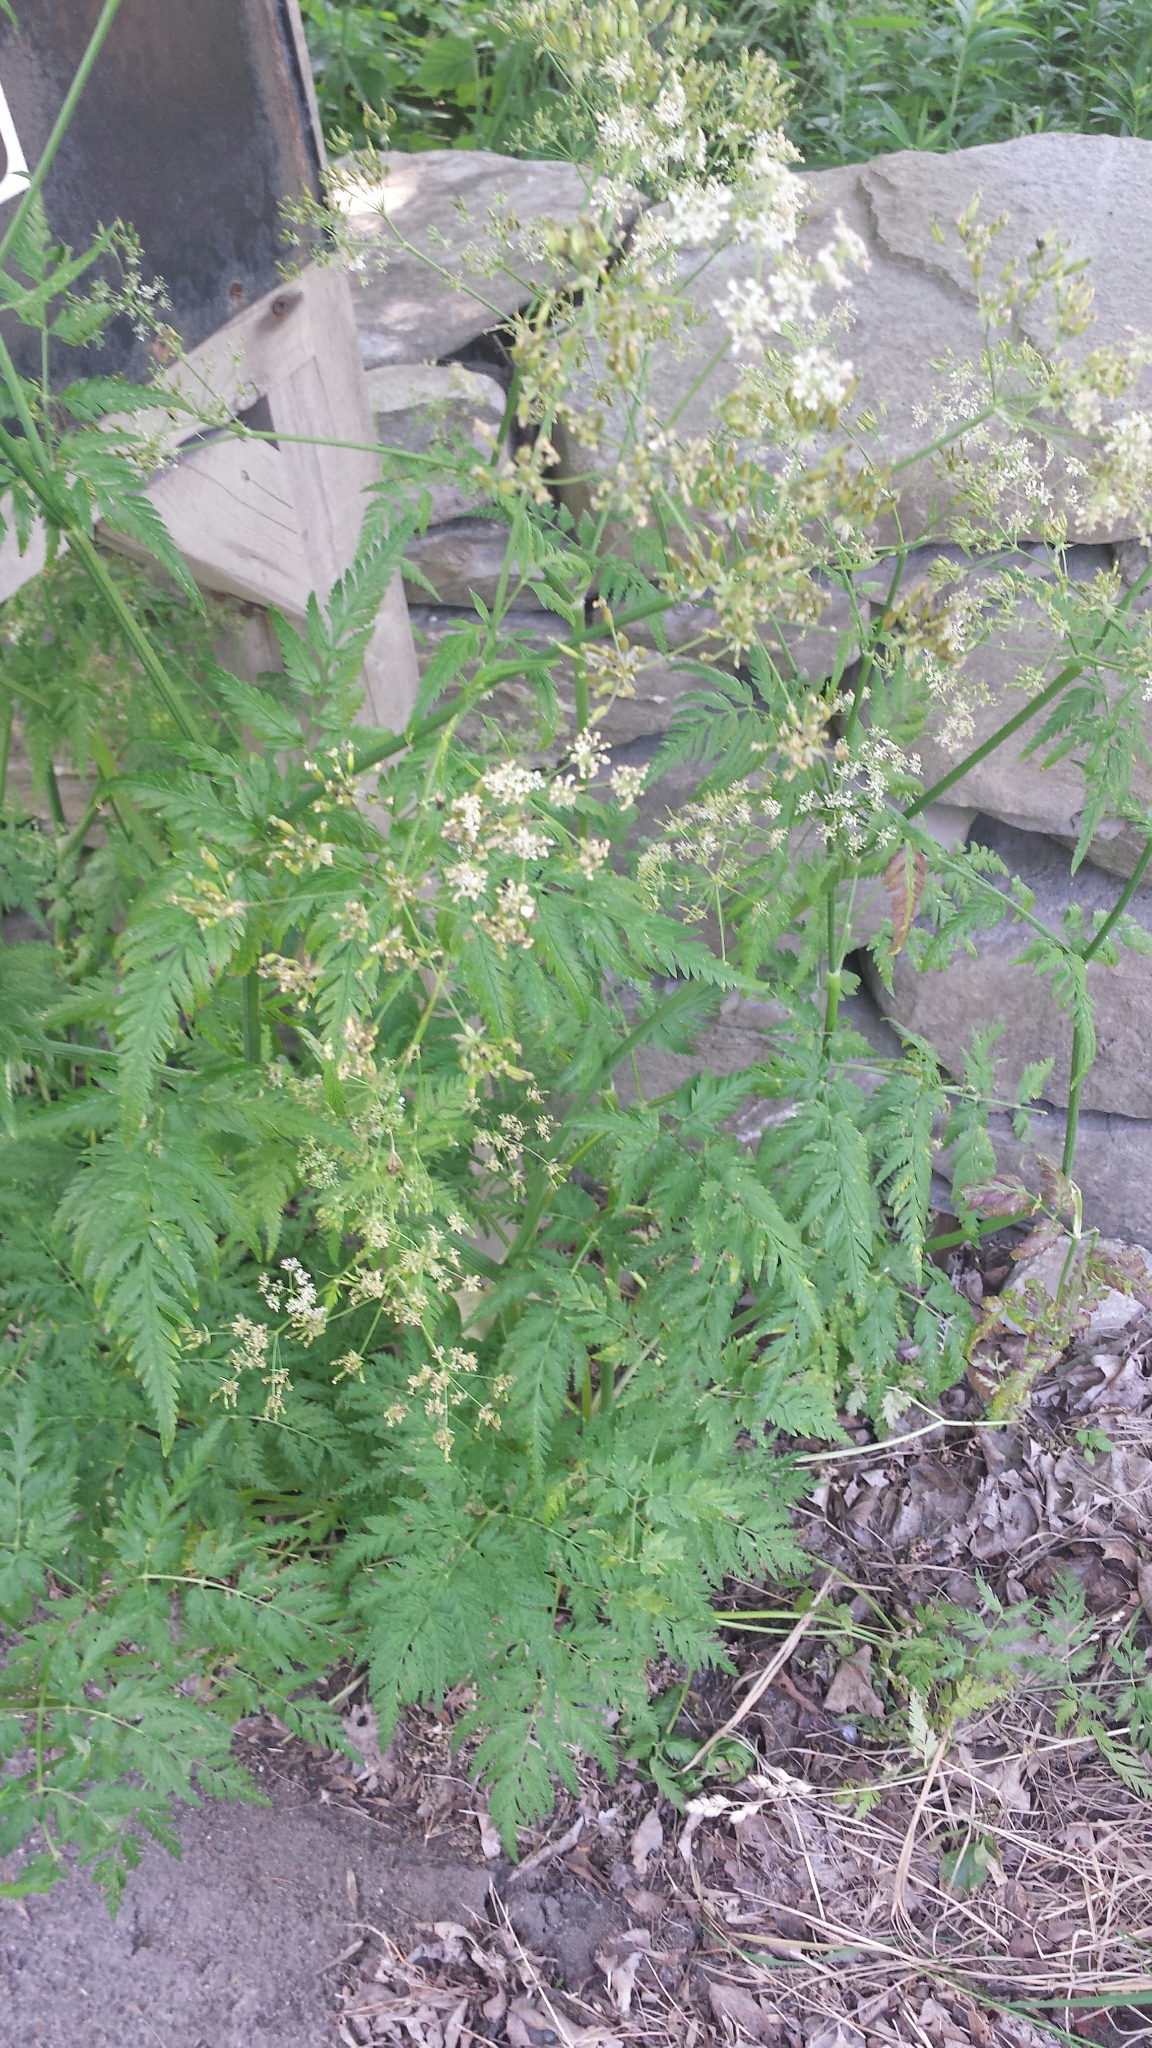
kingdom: Plantae
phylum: Tracheophyta
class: Magnoliopsida
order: Apiales
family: Apiaceae
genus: Anthriscus
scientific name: Anthriscus sylvestris
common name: Cow parsley
